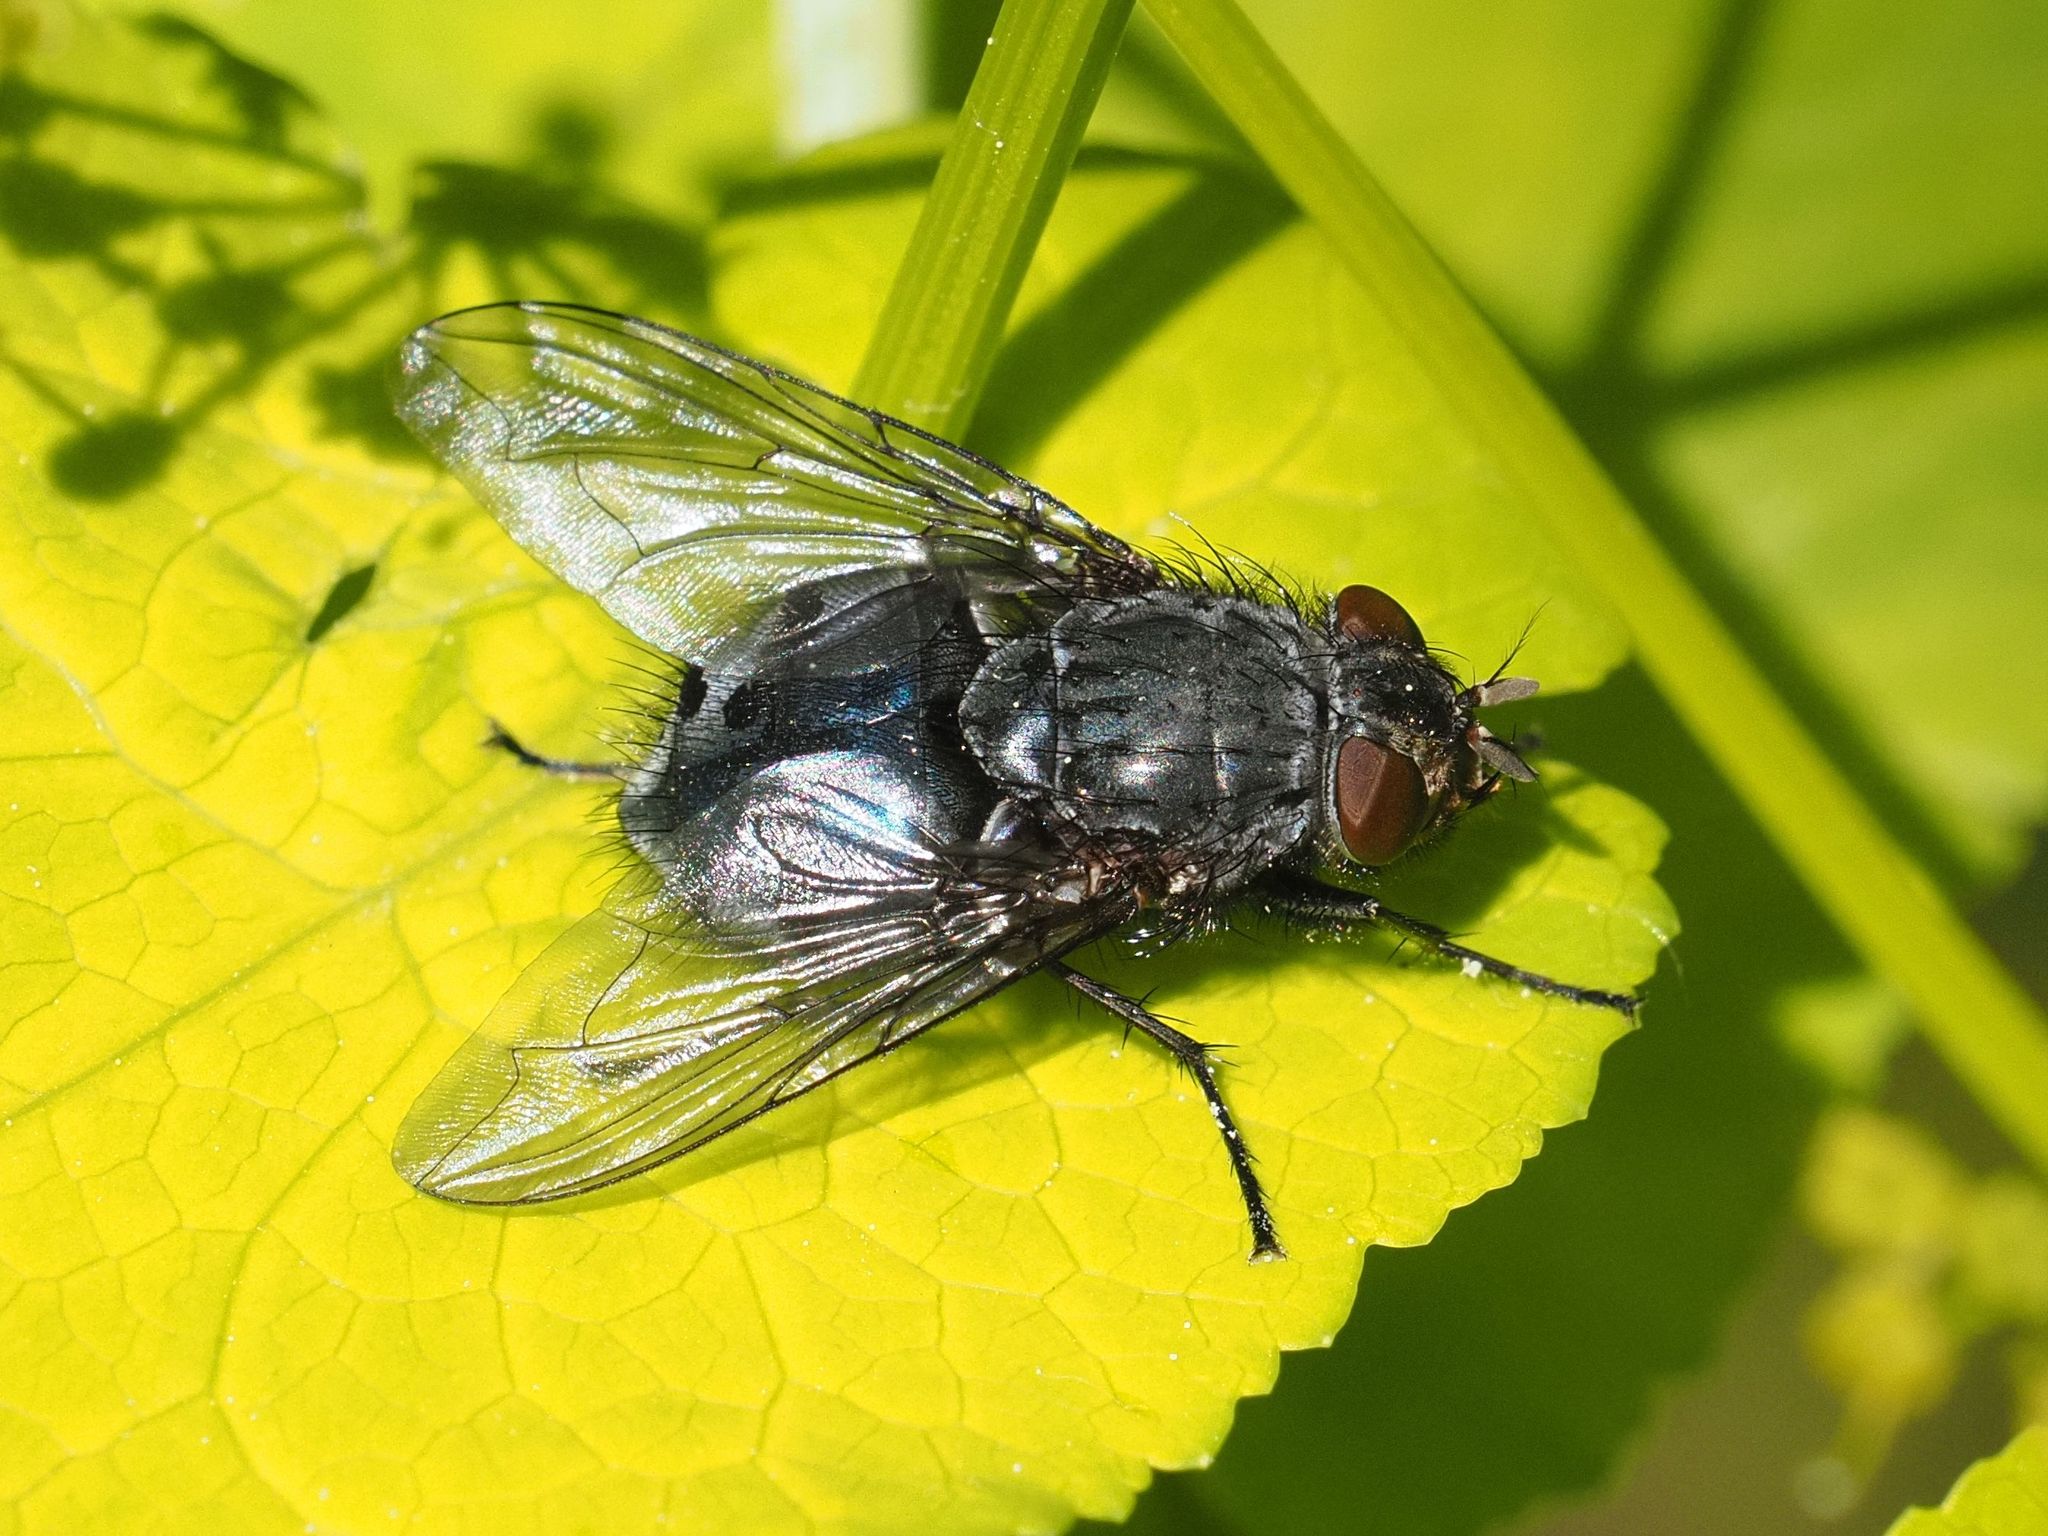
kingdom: Animalia
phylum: Arthropoda
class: Insecta
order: Diptera
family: Calliphoridae
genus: Calliphora
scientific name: Calliphora vicina
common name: Common blow flie
